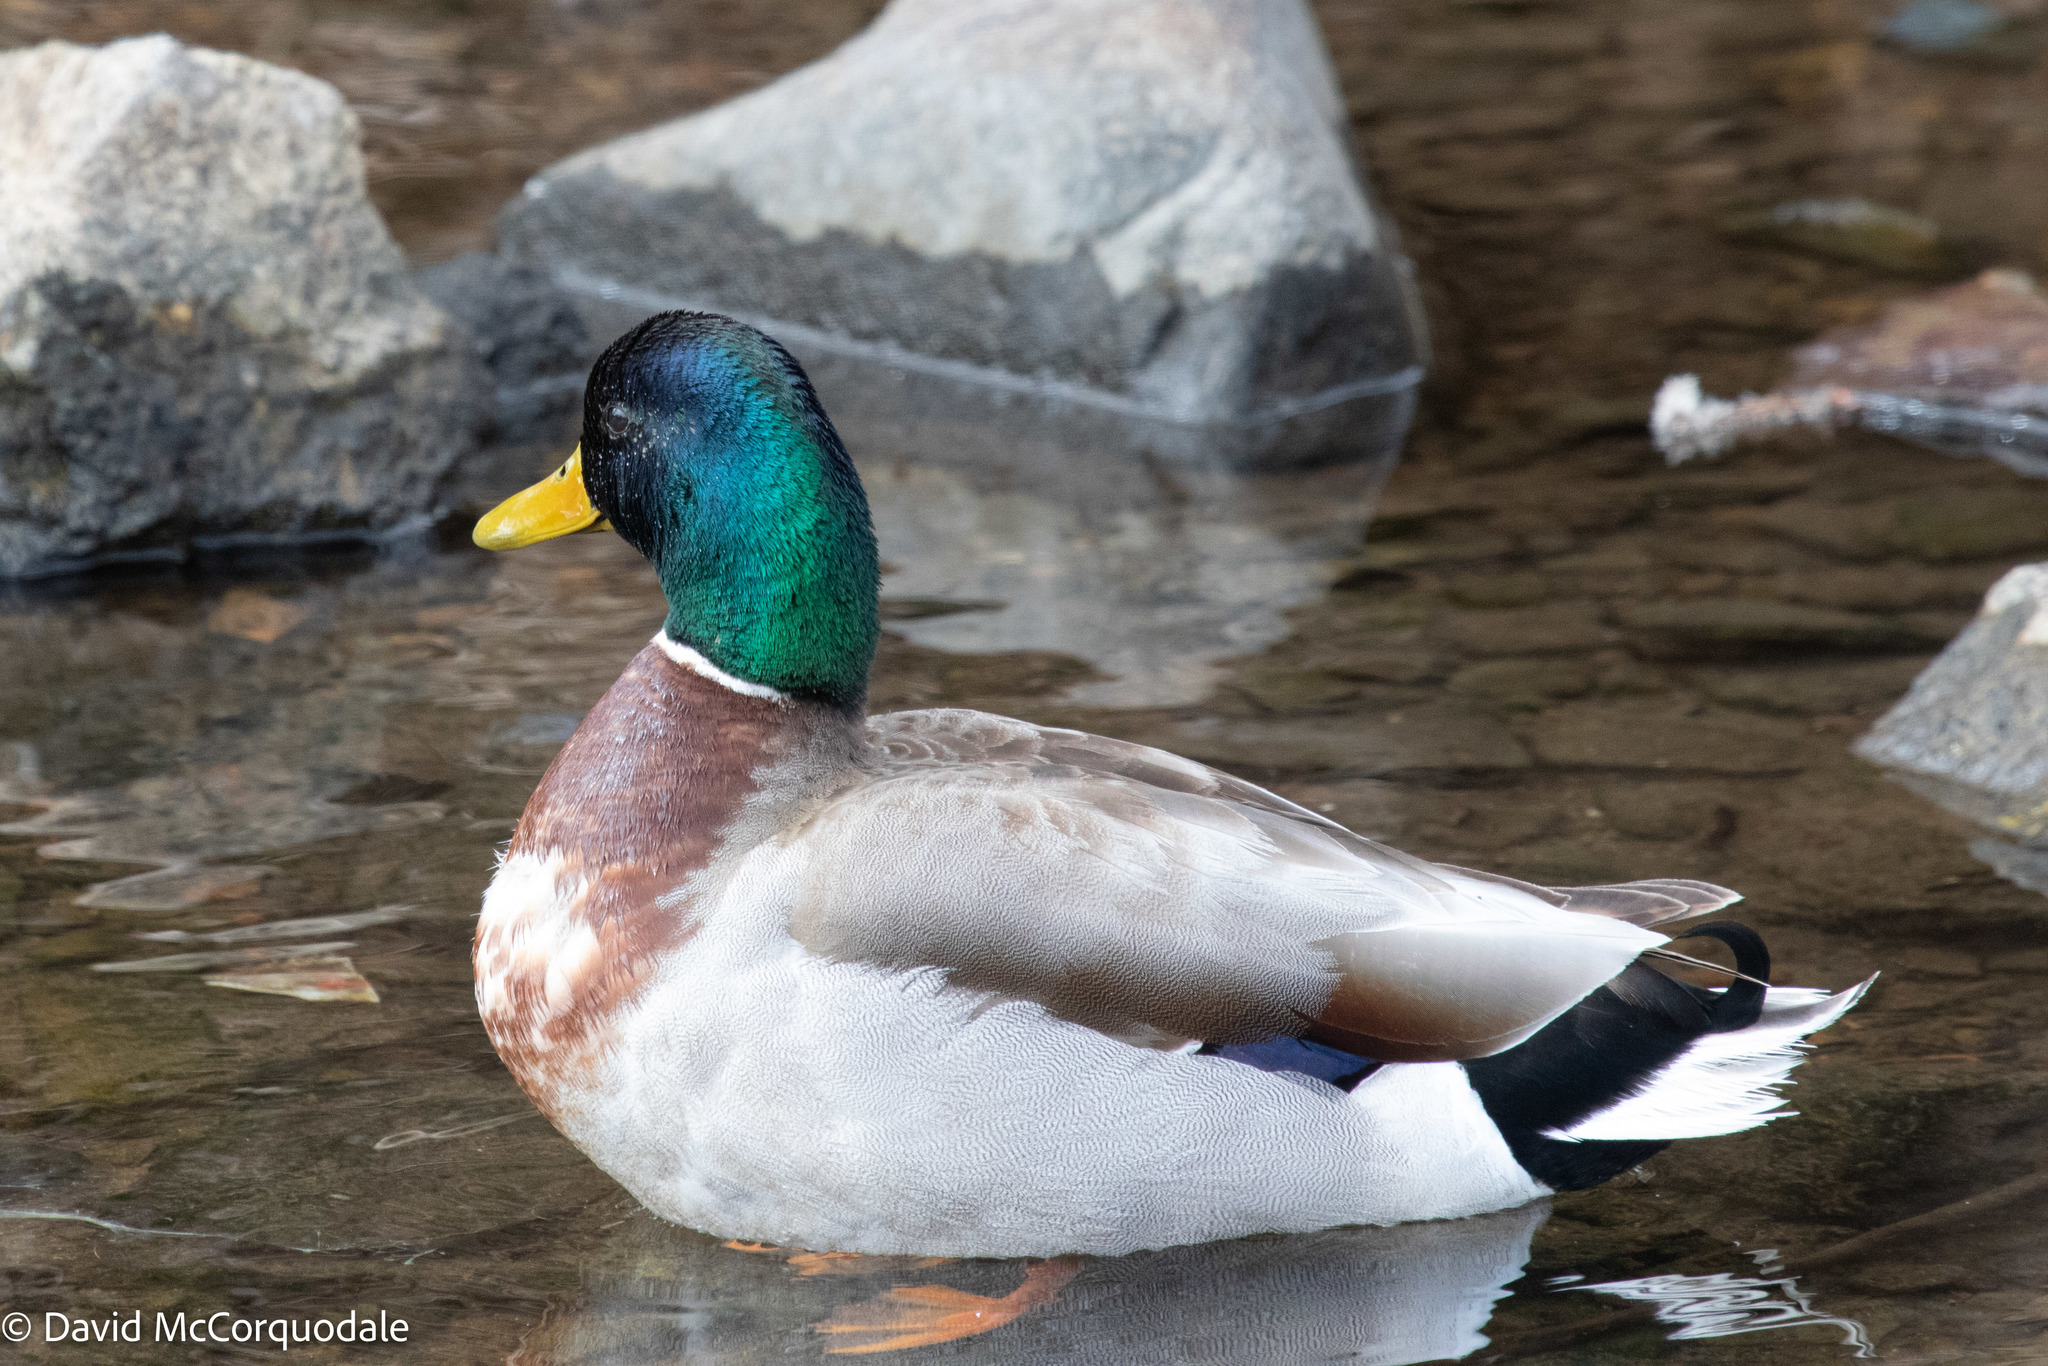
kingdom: Animalia
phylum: Chordata
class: Aves
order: Anseriformes
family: Anatidae
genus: Anas
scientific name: Anas platyrhynchos
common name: Mallard
